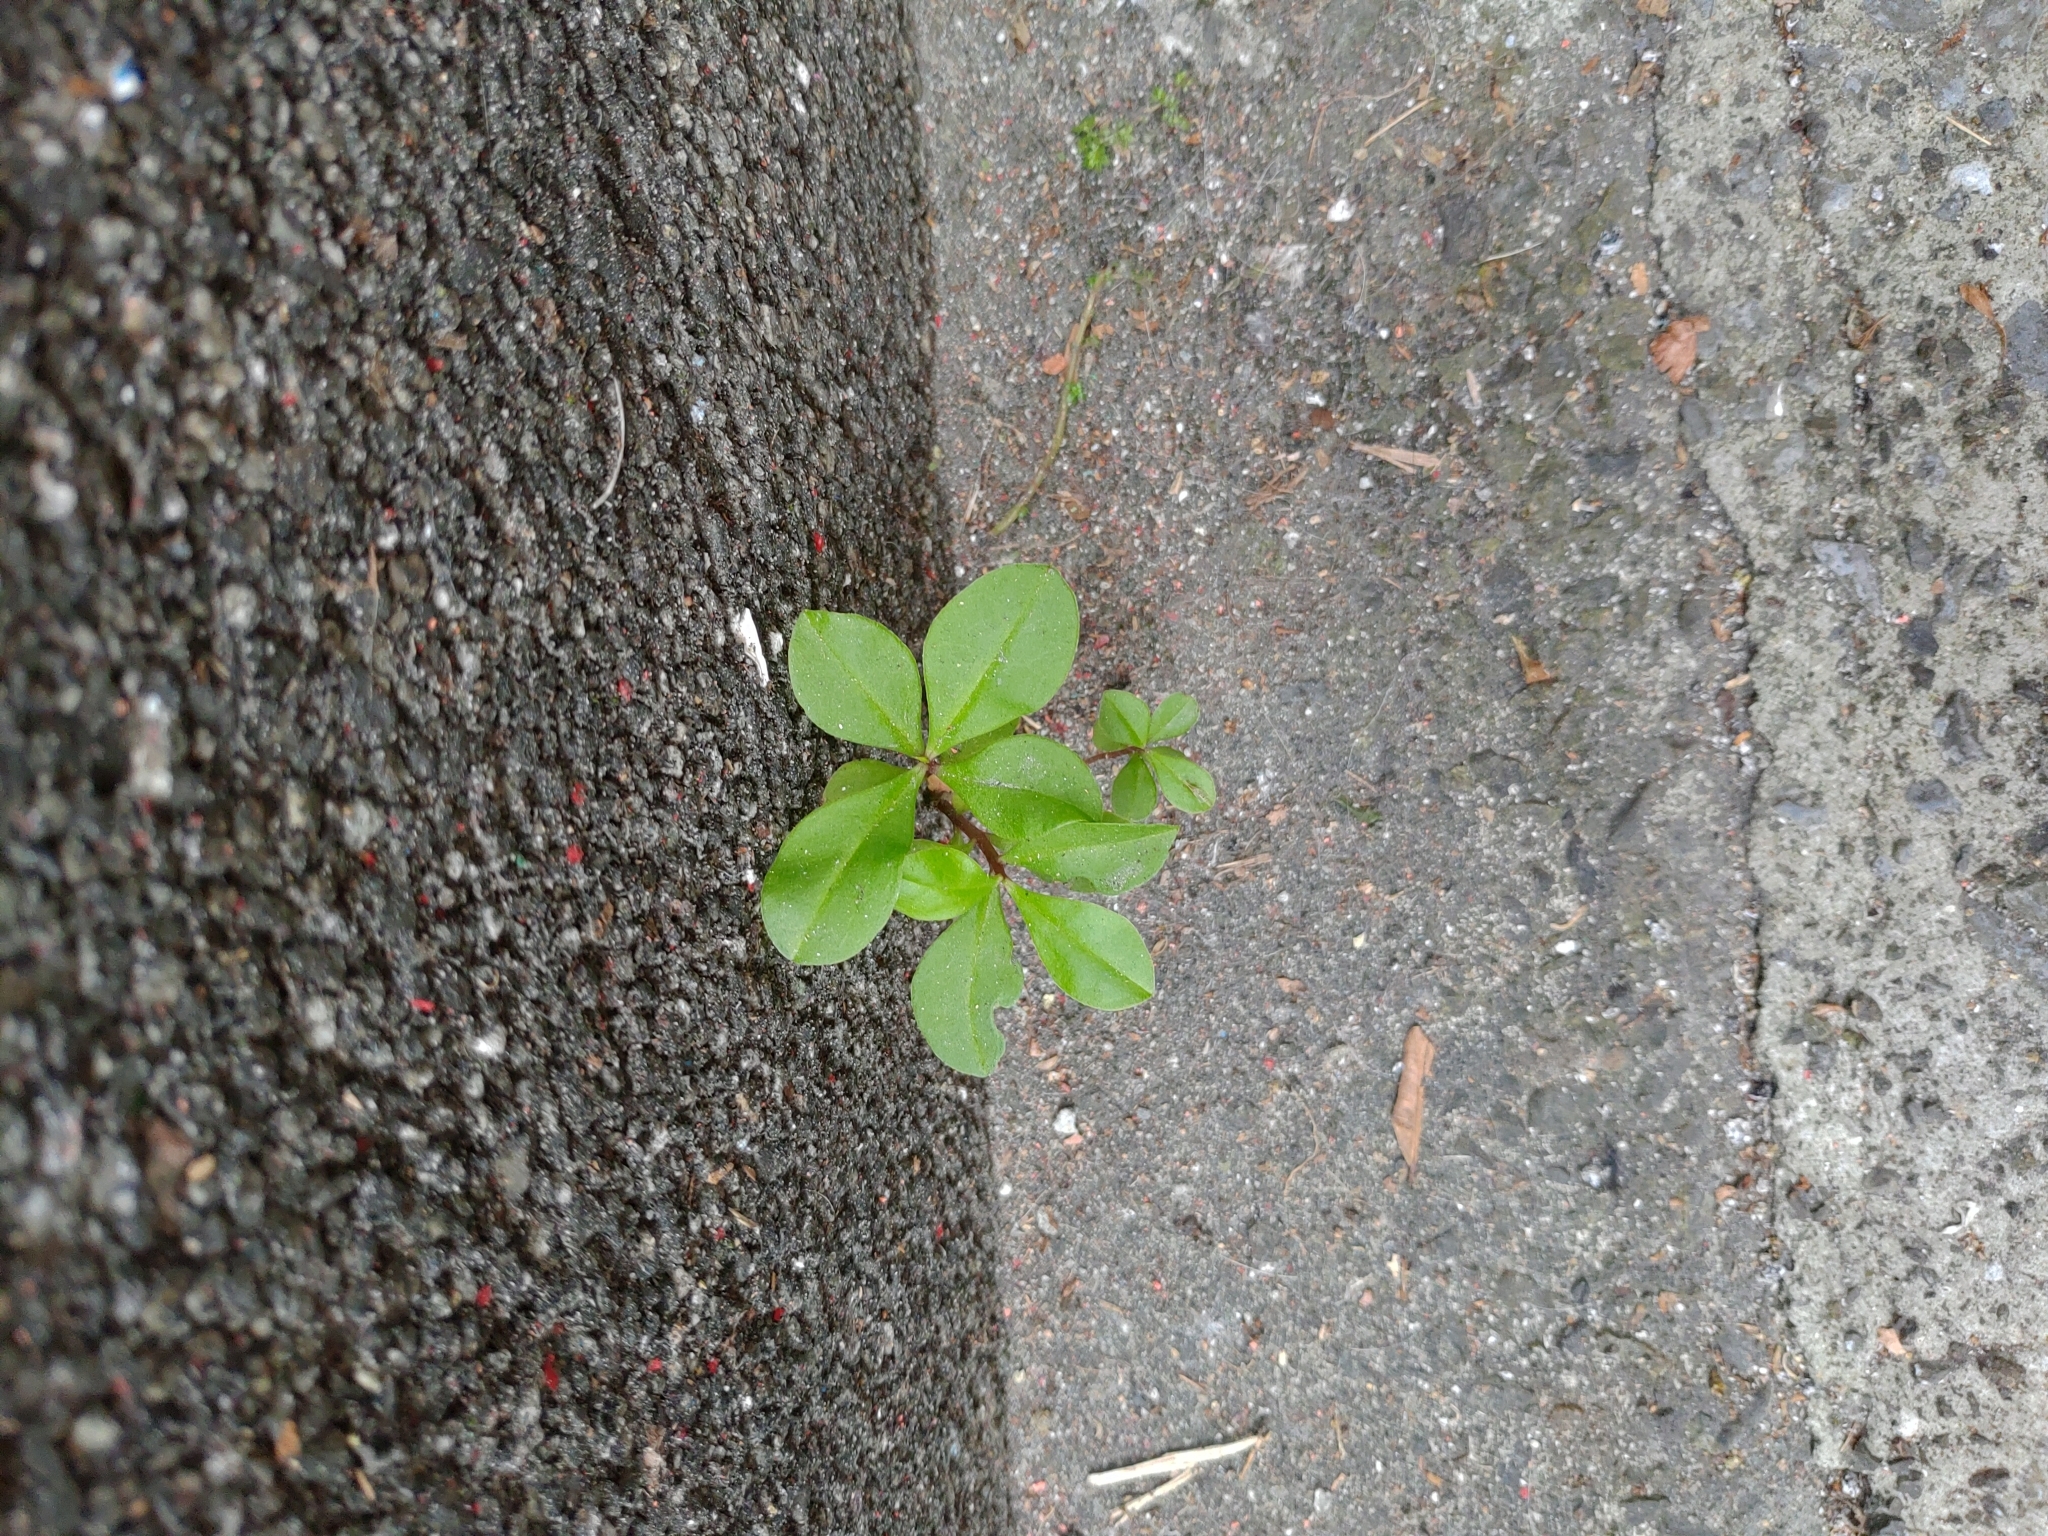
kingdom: Plantae
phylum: Tracheophyta
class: Magnoliopsida
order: Caryophyllales
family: Talinaceae
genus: Talinum
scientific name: Talinum paniculatum
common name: Jewels of opar
